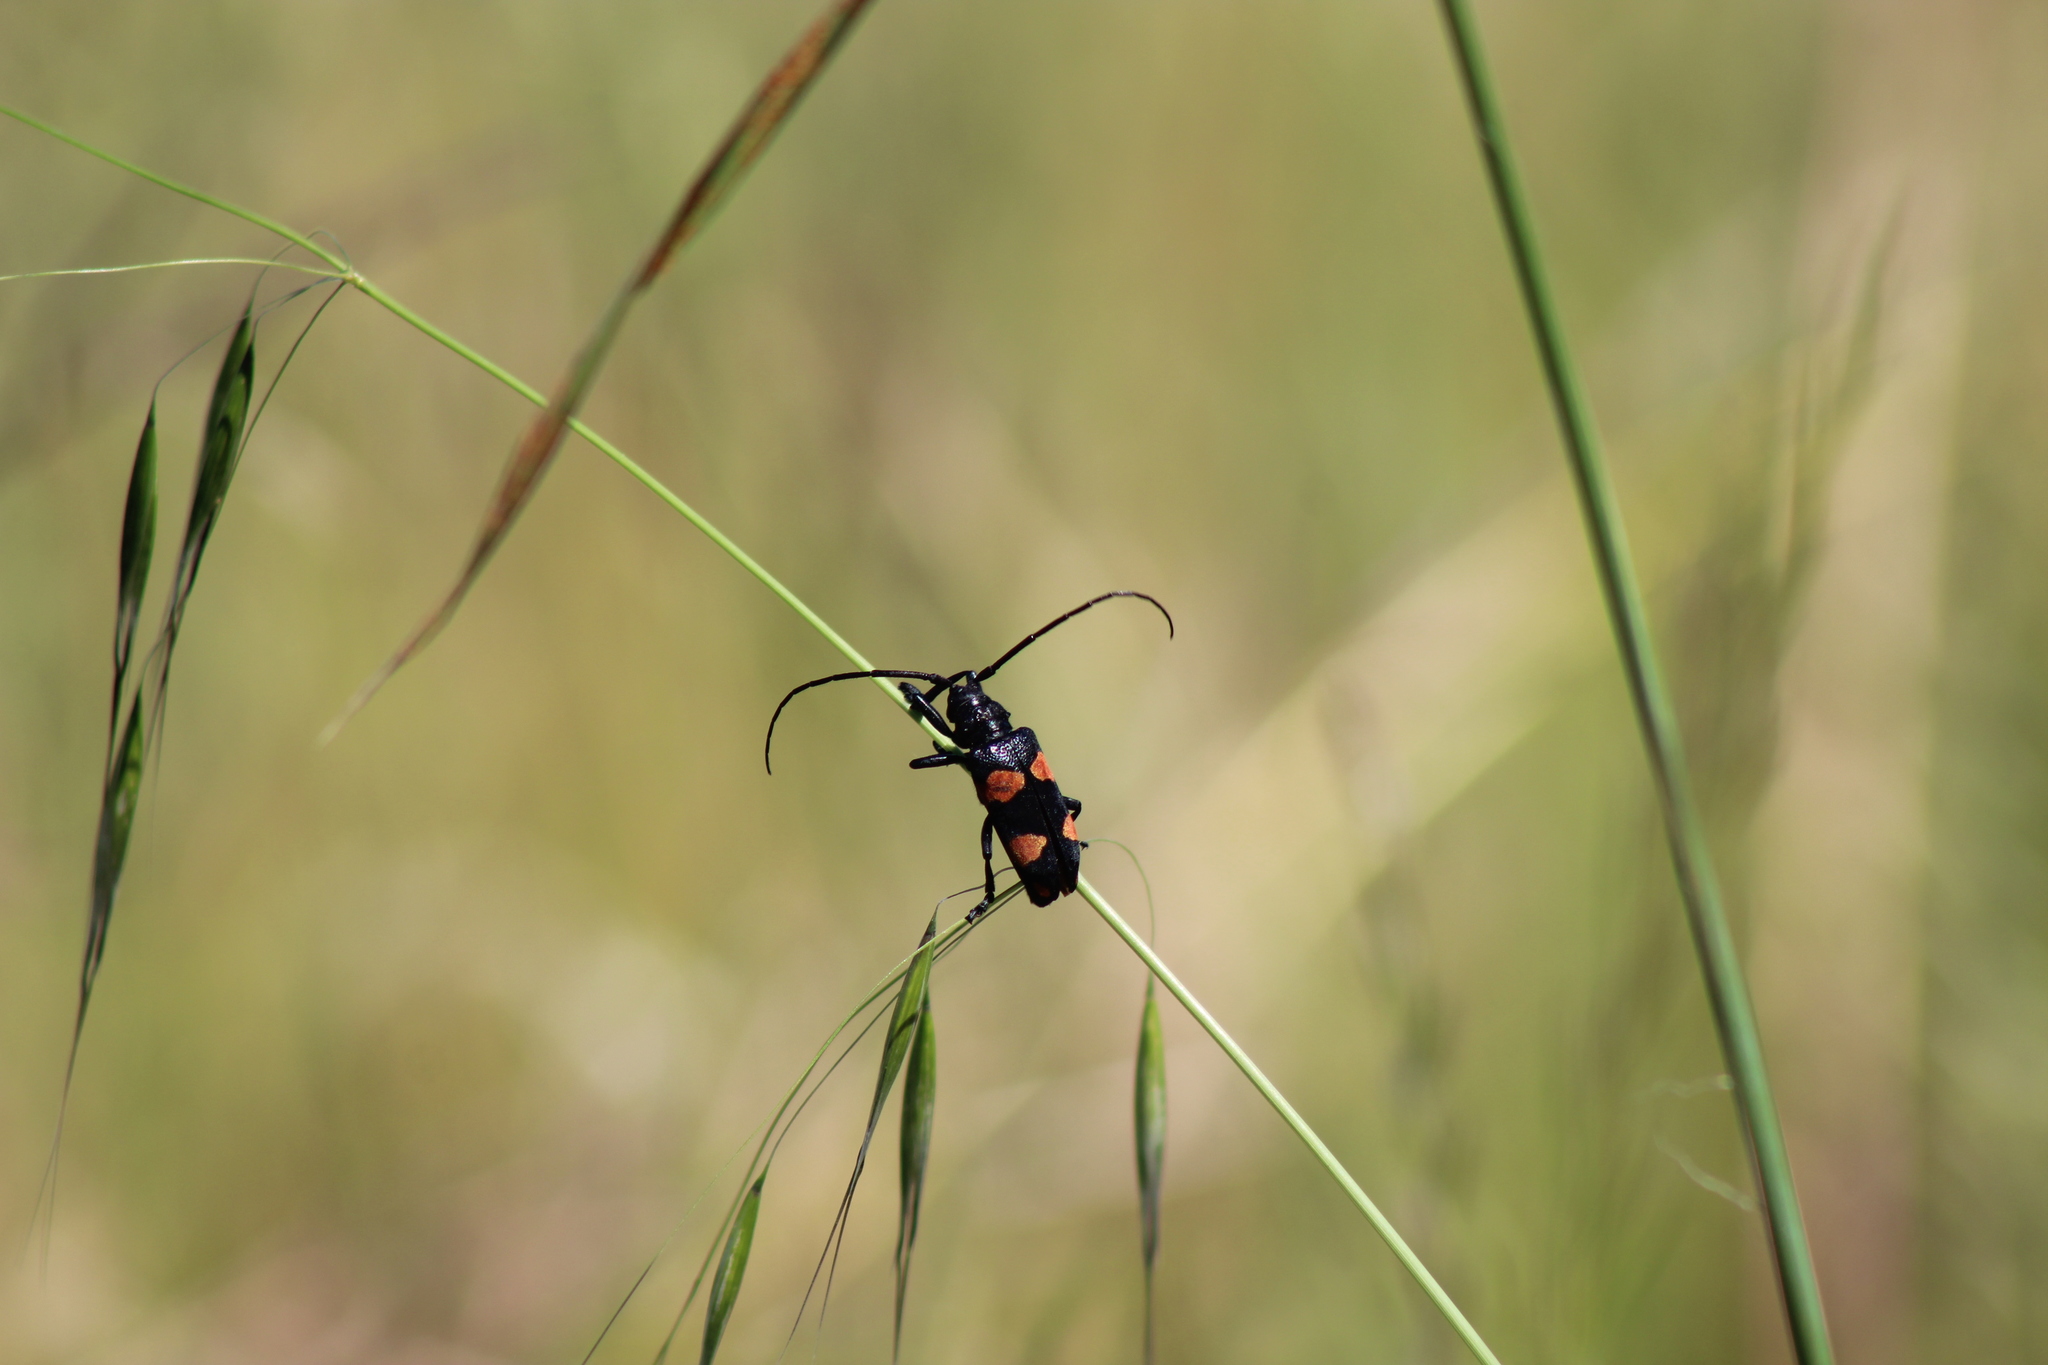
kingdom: Animalia
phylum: Arthropoda
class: Insecta
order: Coleoptera
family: Cerambycidae
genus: Ceroplesis
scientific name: Ceroplesis aethiops
